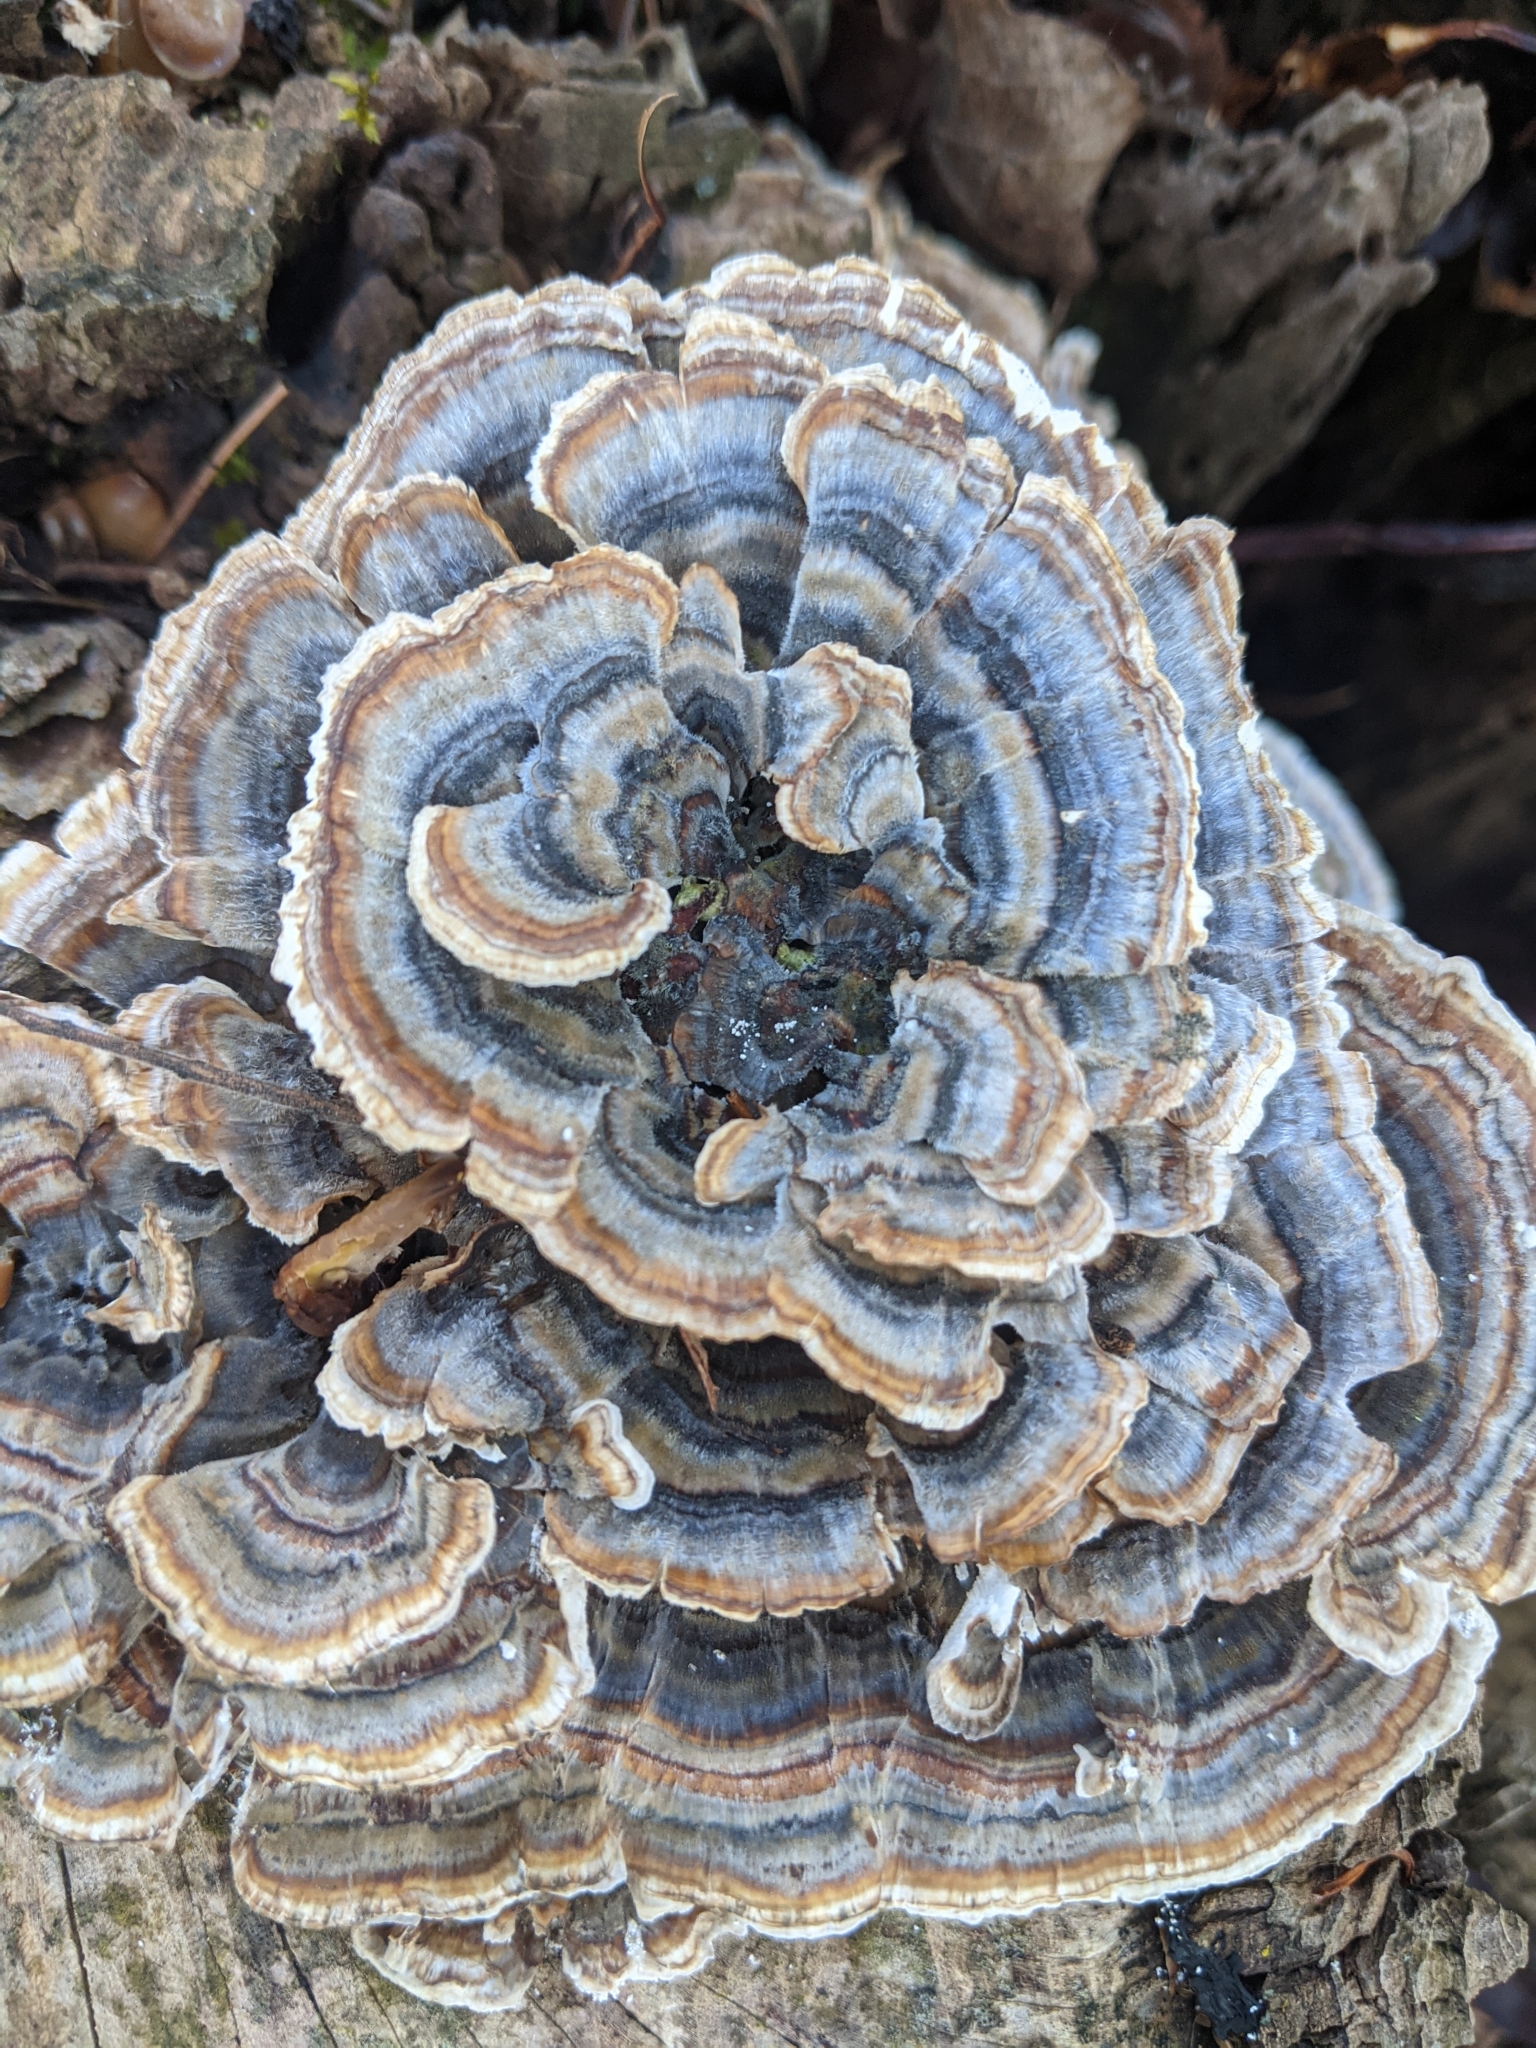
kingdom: Fungi
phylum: Basidiomycota
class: Agaricomycetes
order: Polyporales
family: Polyporaceae
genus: Trametes
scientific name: Trametes versicolor
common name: Turkeytail
